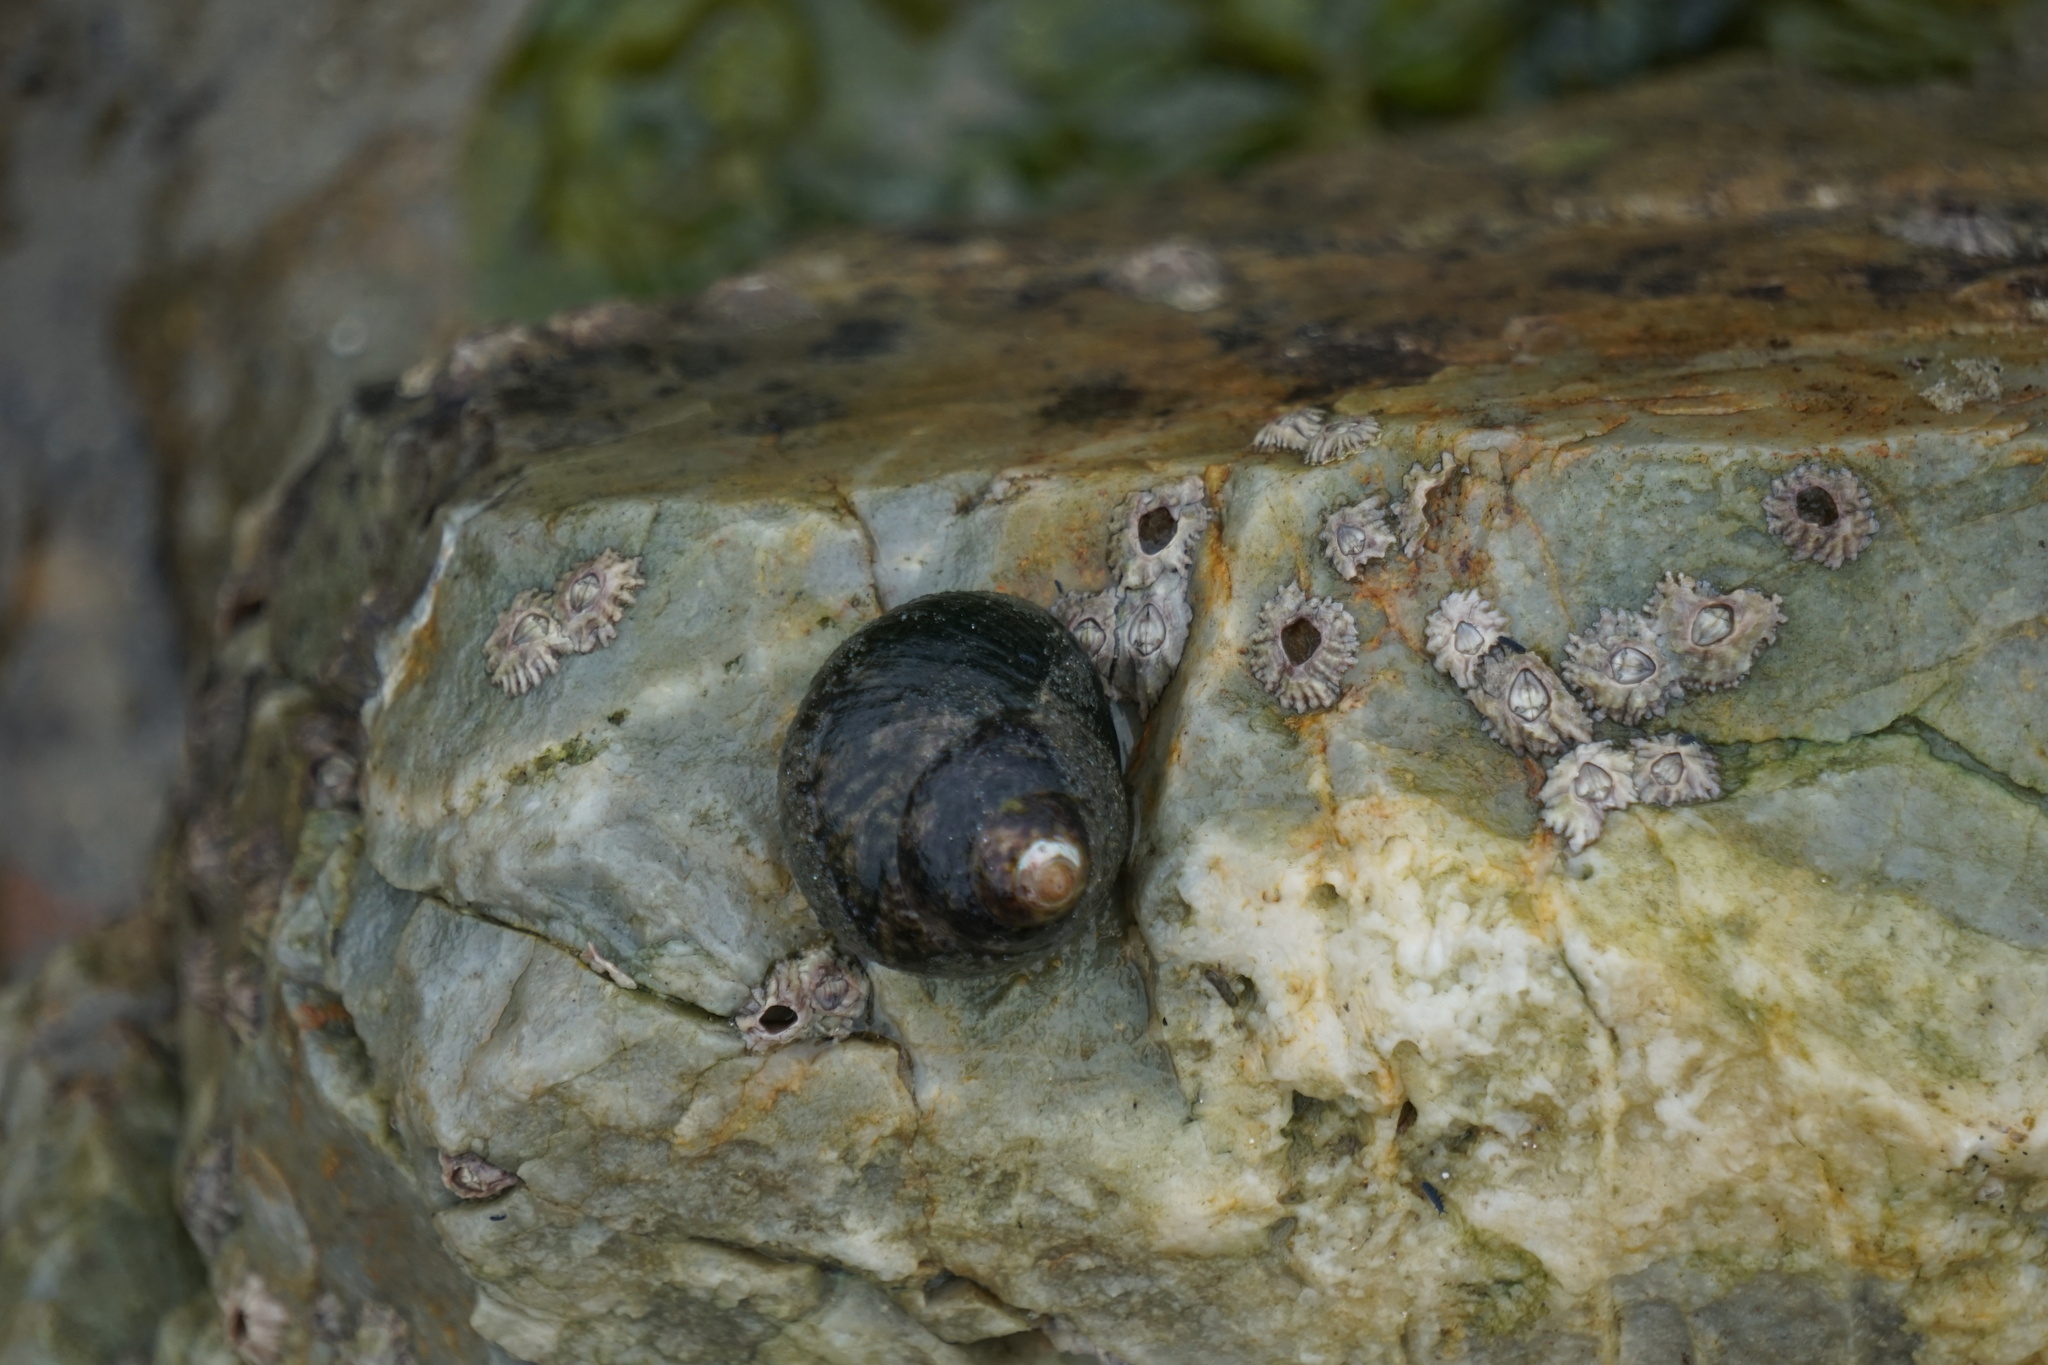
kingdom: Animalia
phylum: Mollusca
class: Gastropoda
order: Trochida
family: Trochidae
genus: Phorcus
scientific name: Phorcus lineatus
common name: Toothed top shell
